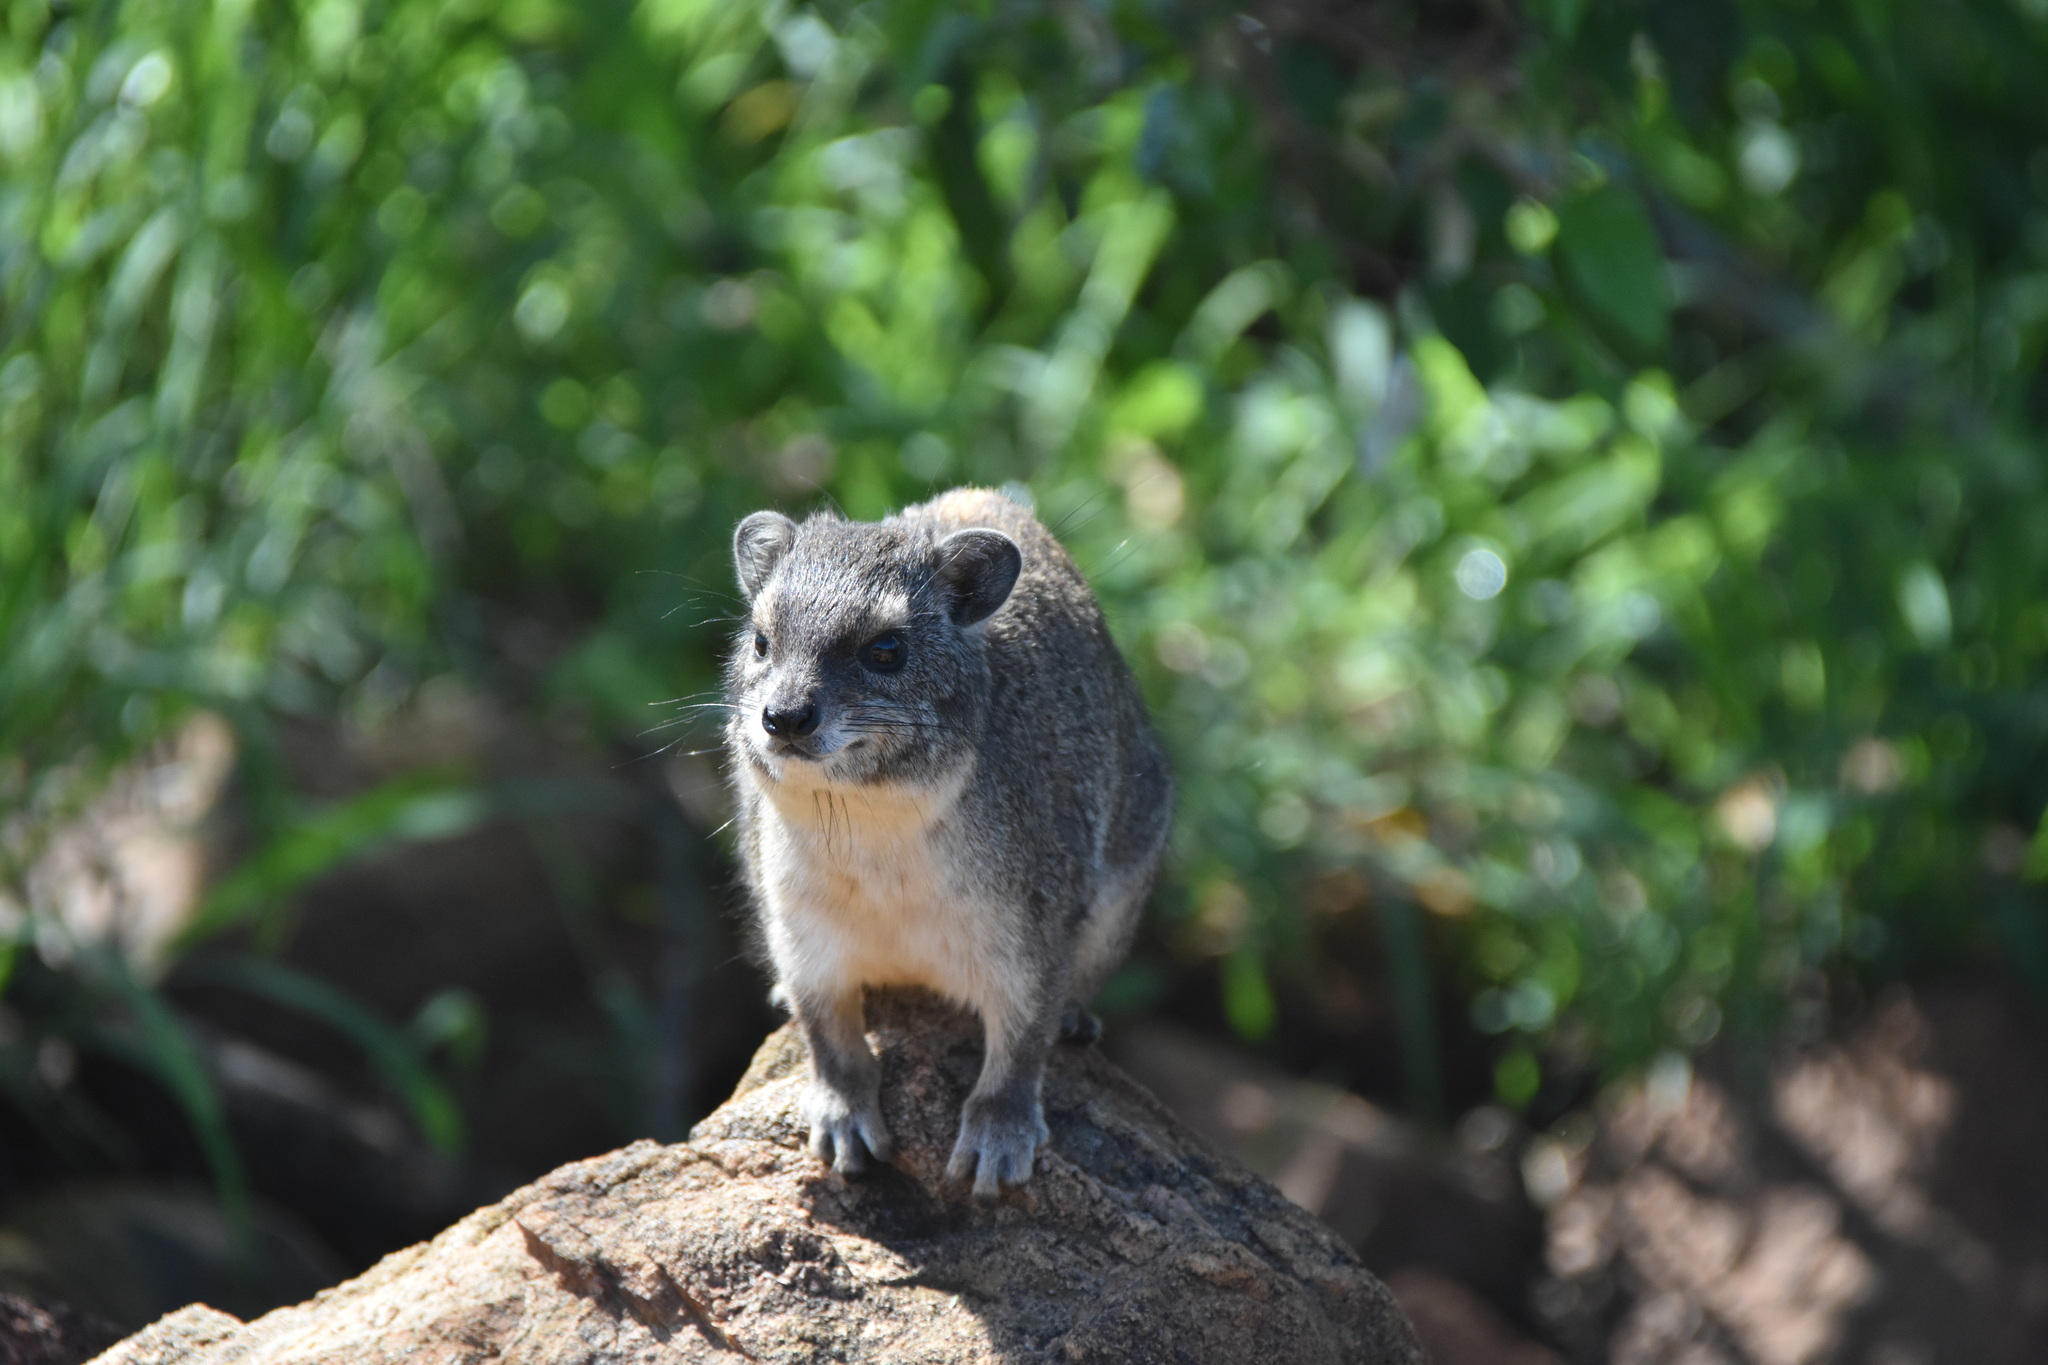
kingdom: Animalia
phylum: Chordata
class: Mammalia
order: Hyracoidea
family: Procaviidae
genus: Heterohyrax
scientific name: Heterohyrax brucei
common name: Bush hyrax
